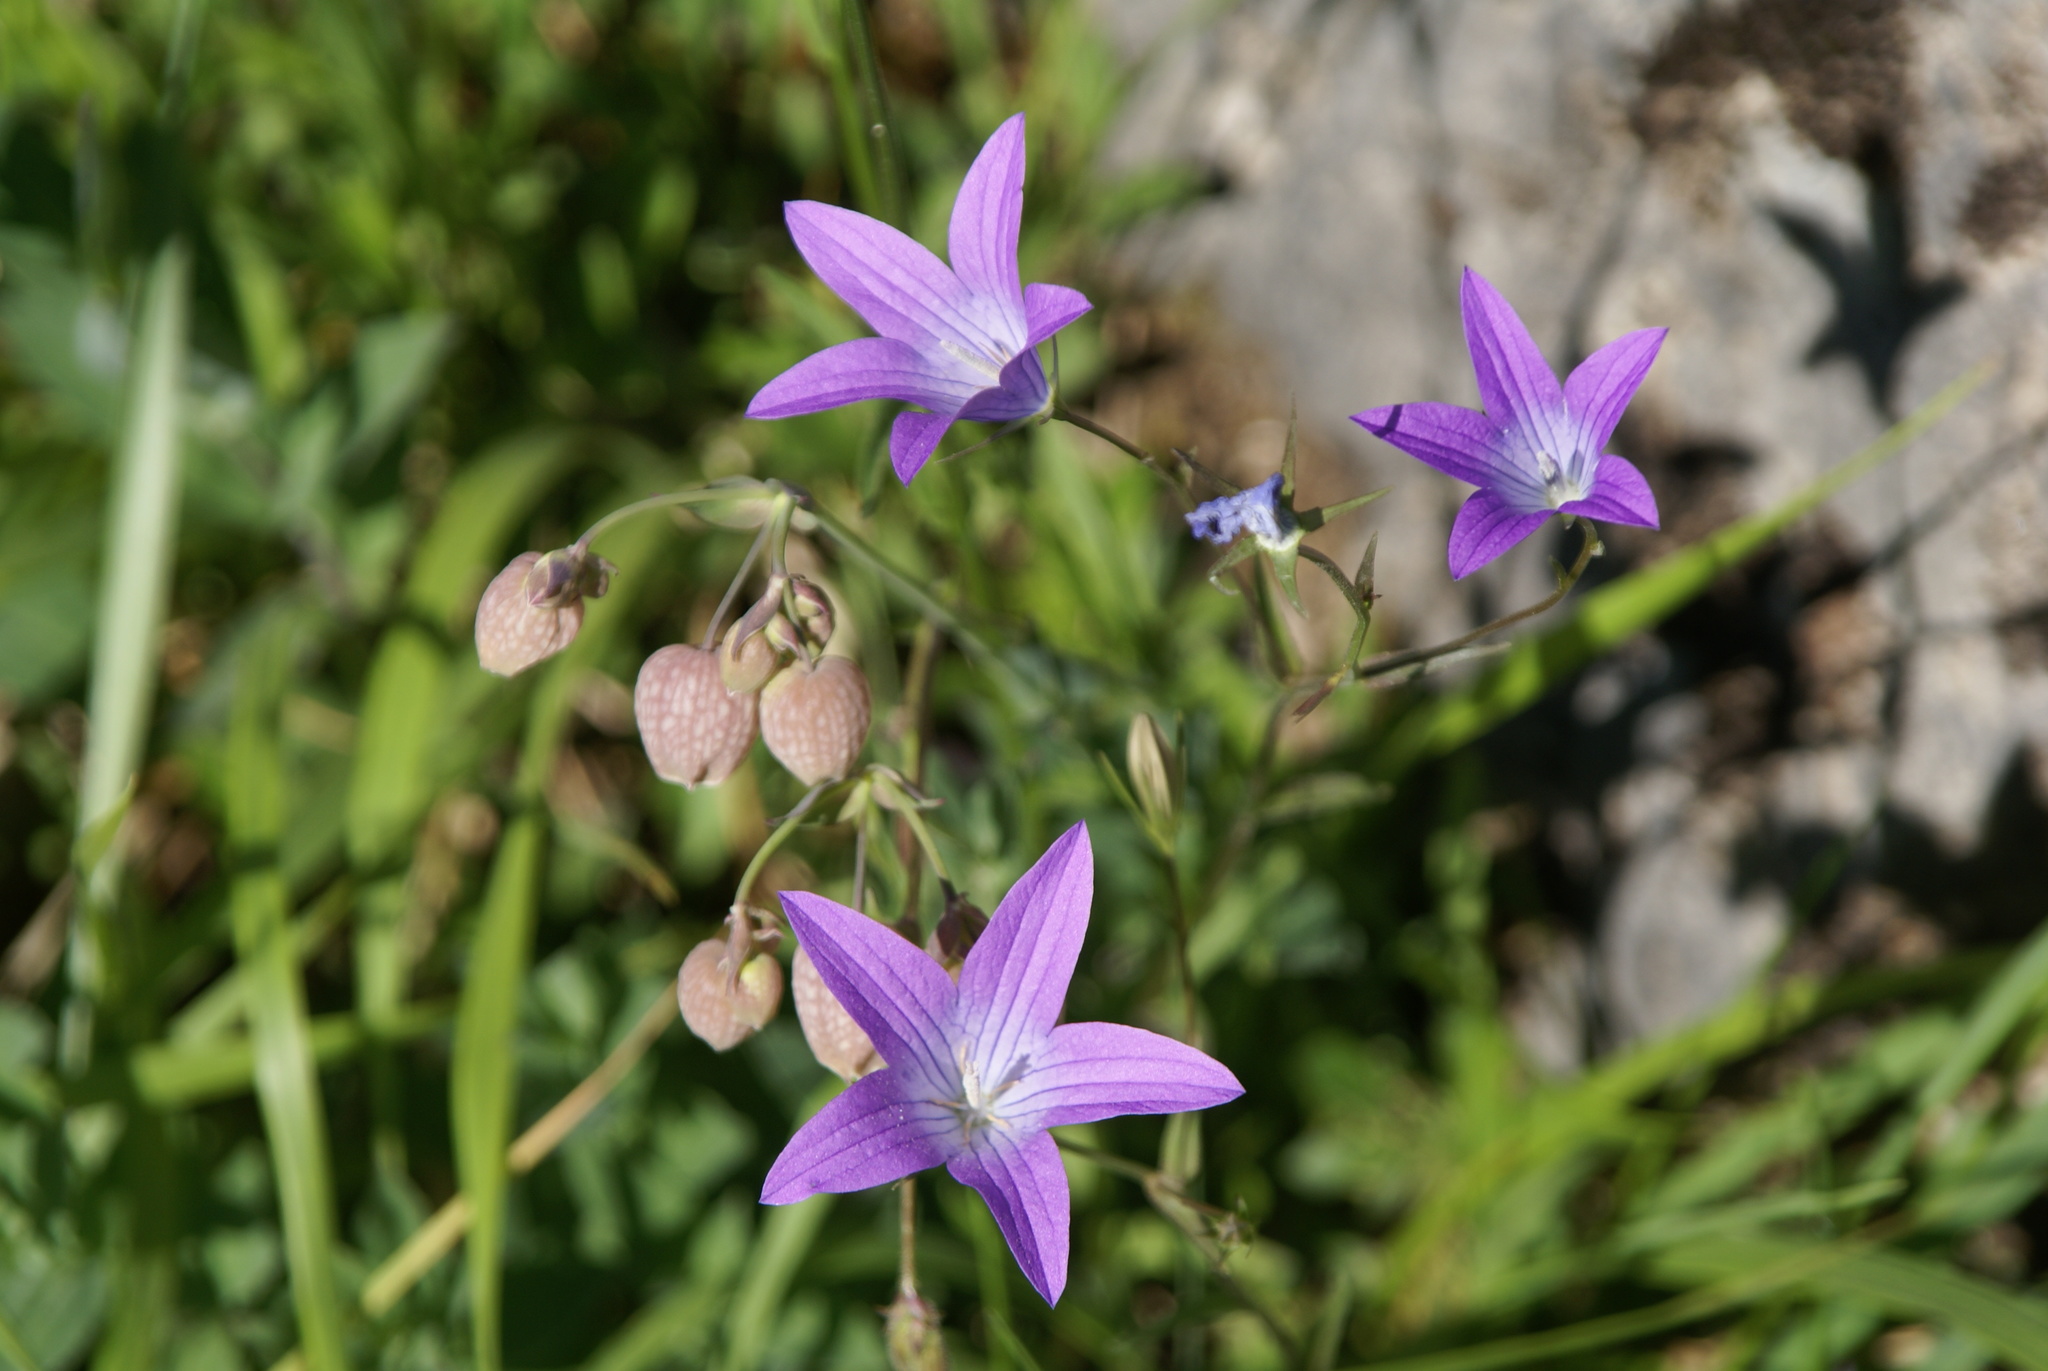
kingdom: Plantae
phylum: Tracheophyta
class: Magnoliopsida
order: Asterales
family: Campanulaceae
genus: Campanula
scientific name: Campanula patula
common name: Spreading bellflower
